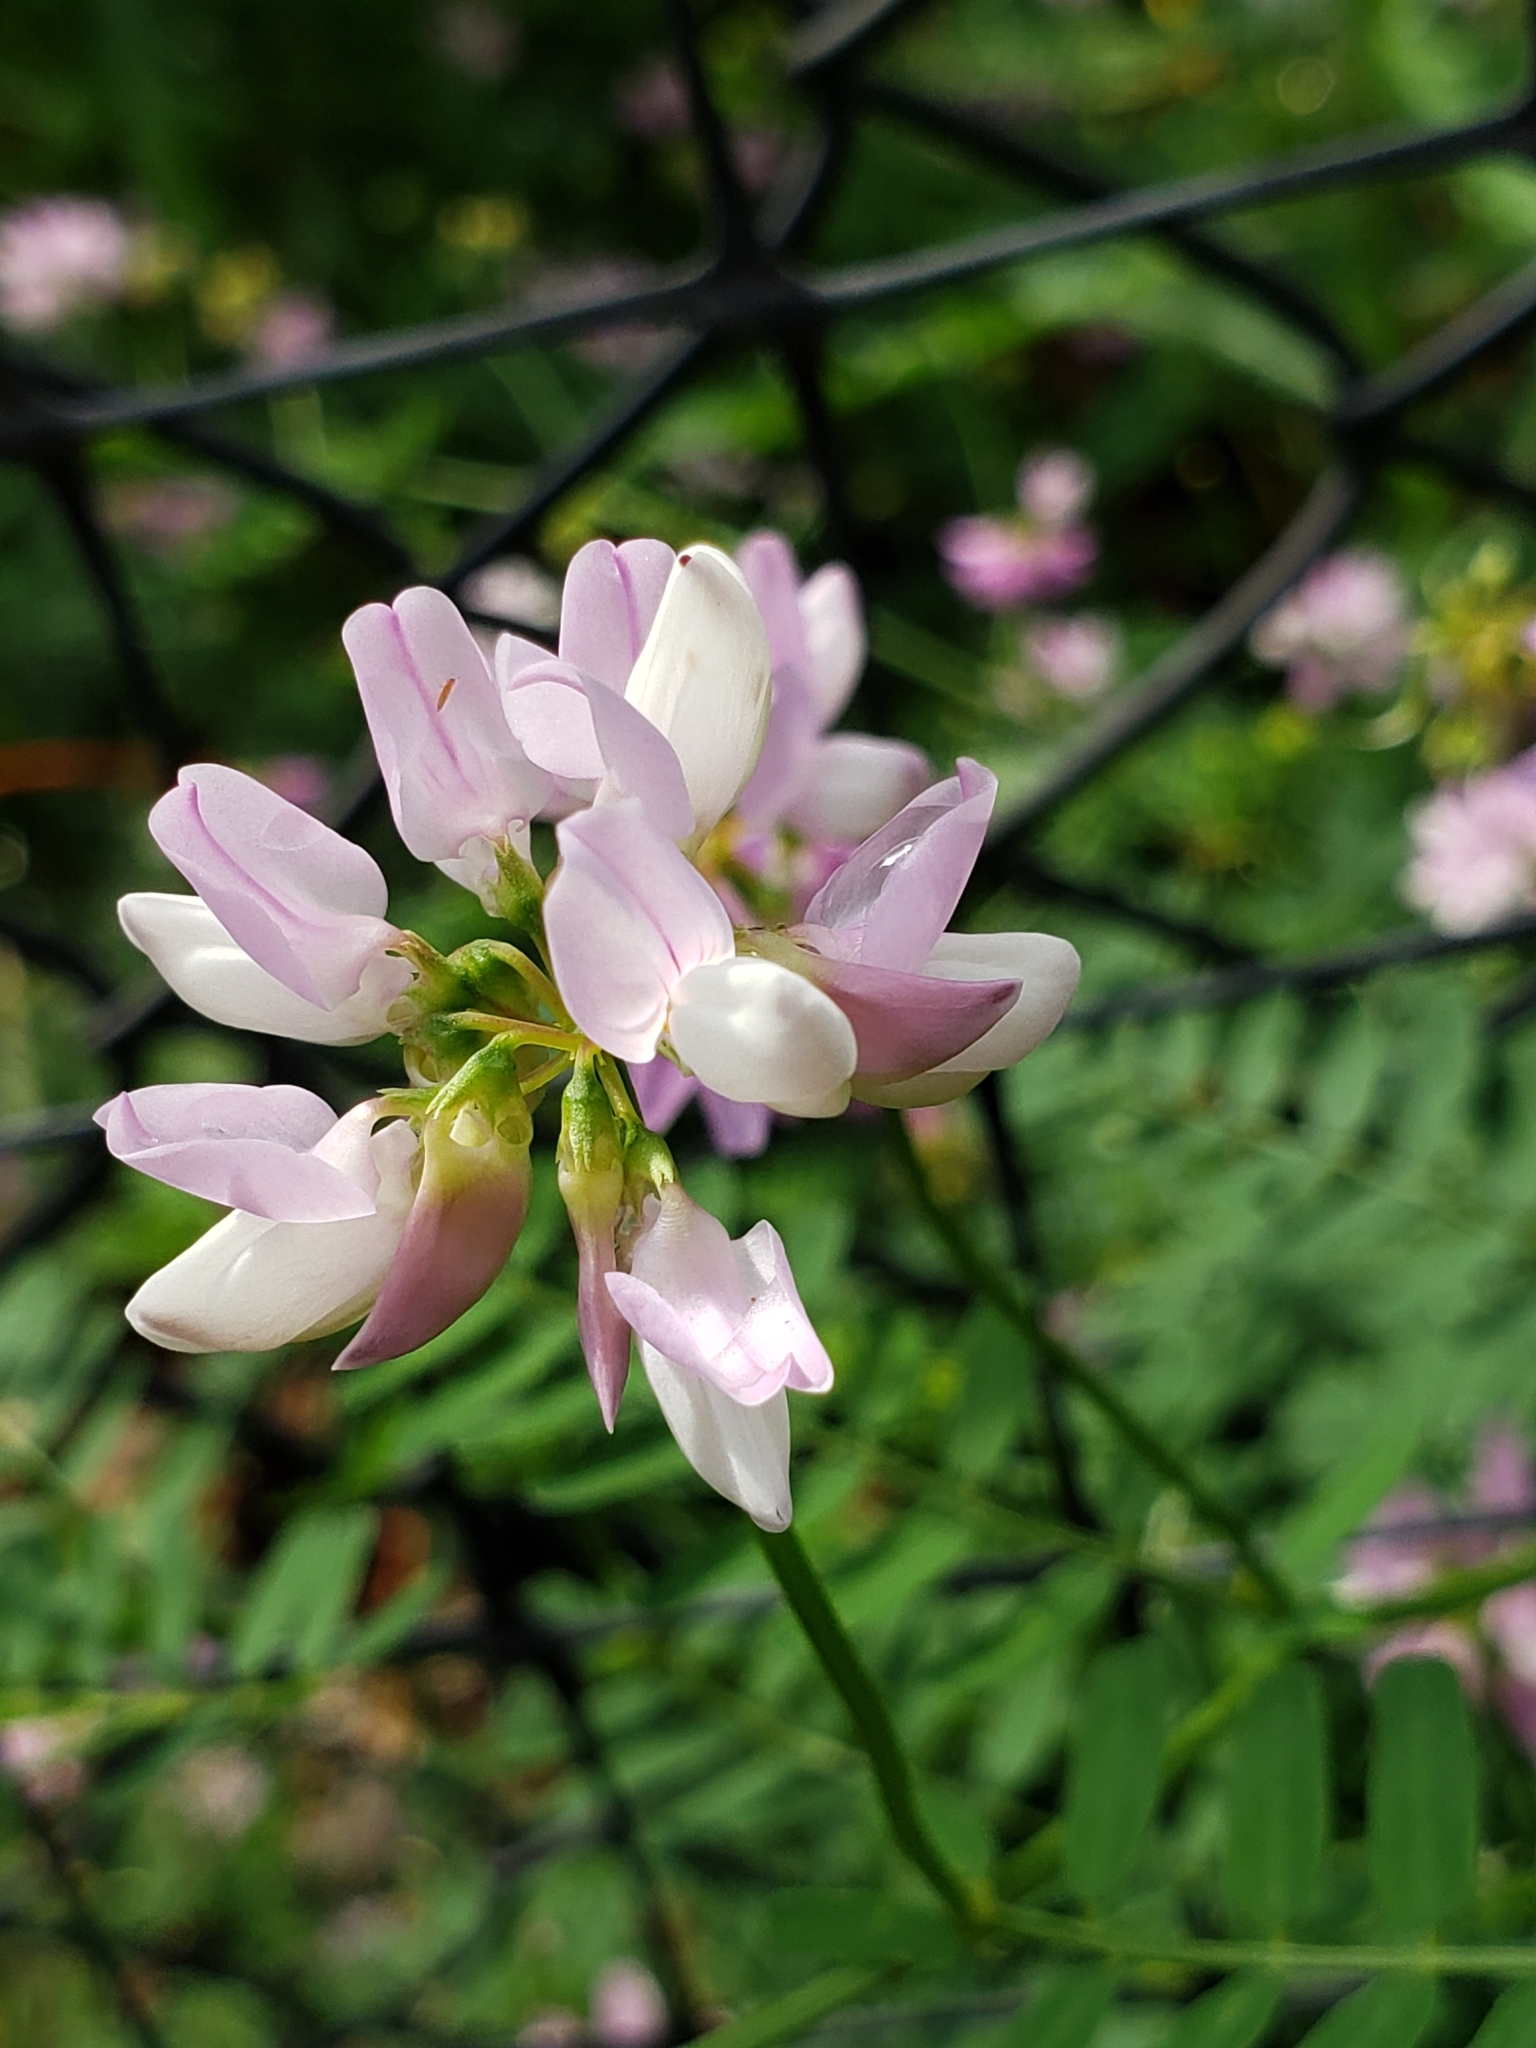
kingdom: Plantae
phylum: Tracheophyta
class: Magnoliopsida
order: Fabales
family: Fabaceae
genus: Coronilla
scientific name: Coronilla varia
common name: Crownvetch
